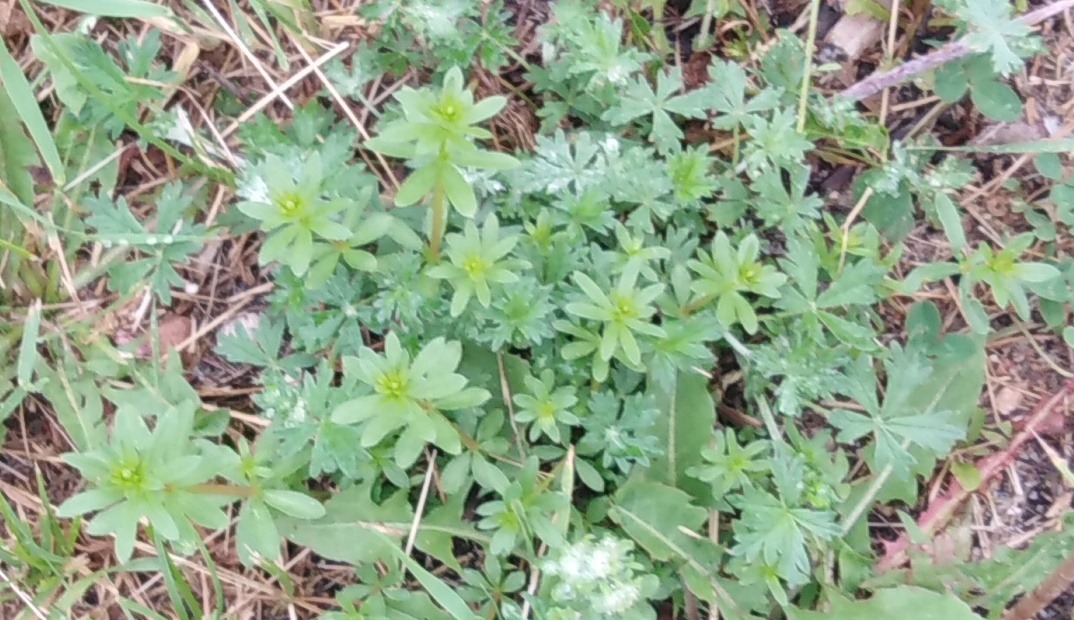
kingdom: Plantae
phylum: Tracheophyta
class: Magnoliopsida
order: Gentianales
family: Rubiaceae
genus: Galium
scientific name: Galium mollugo
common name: Hedge bedstraw
